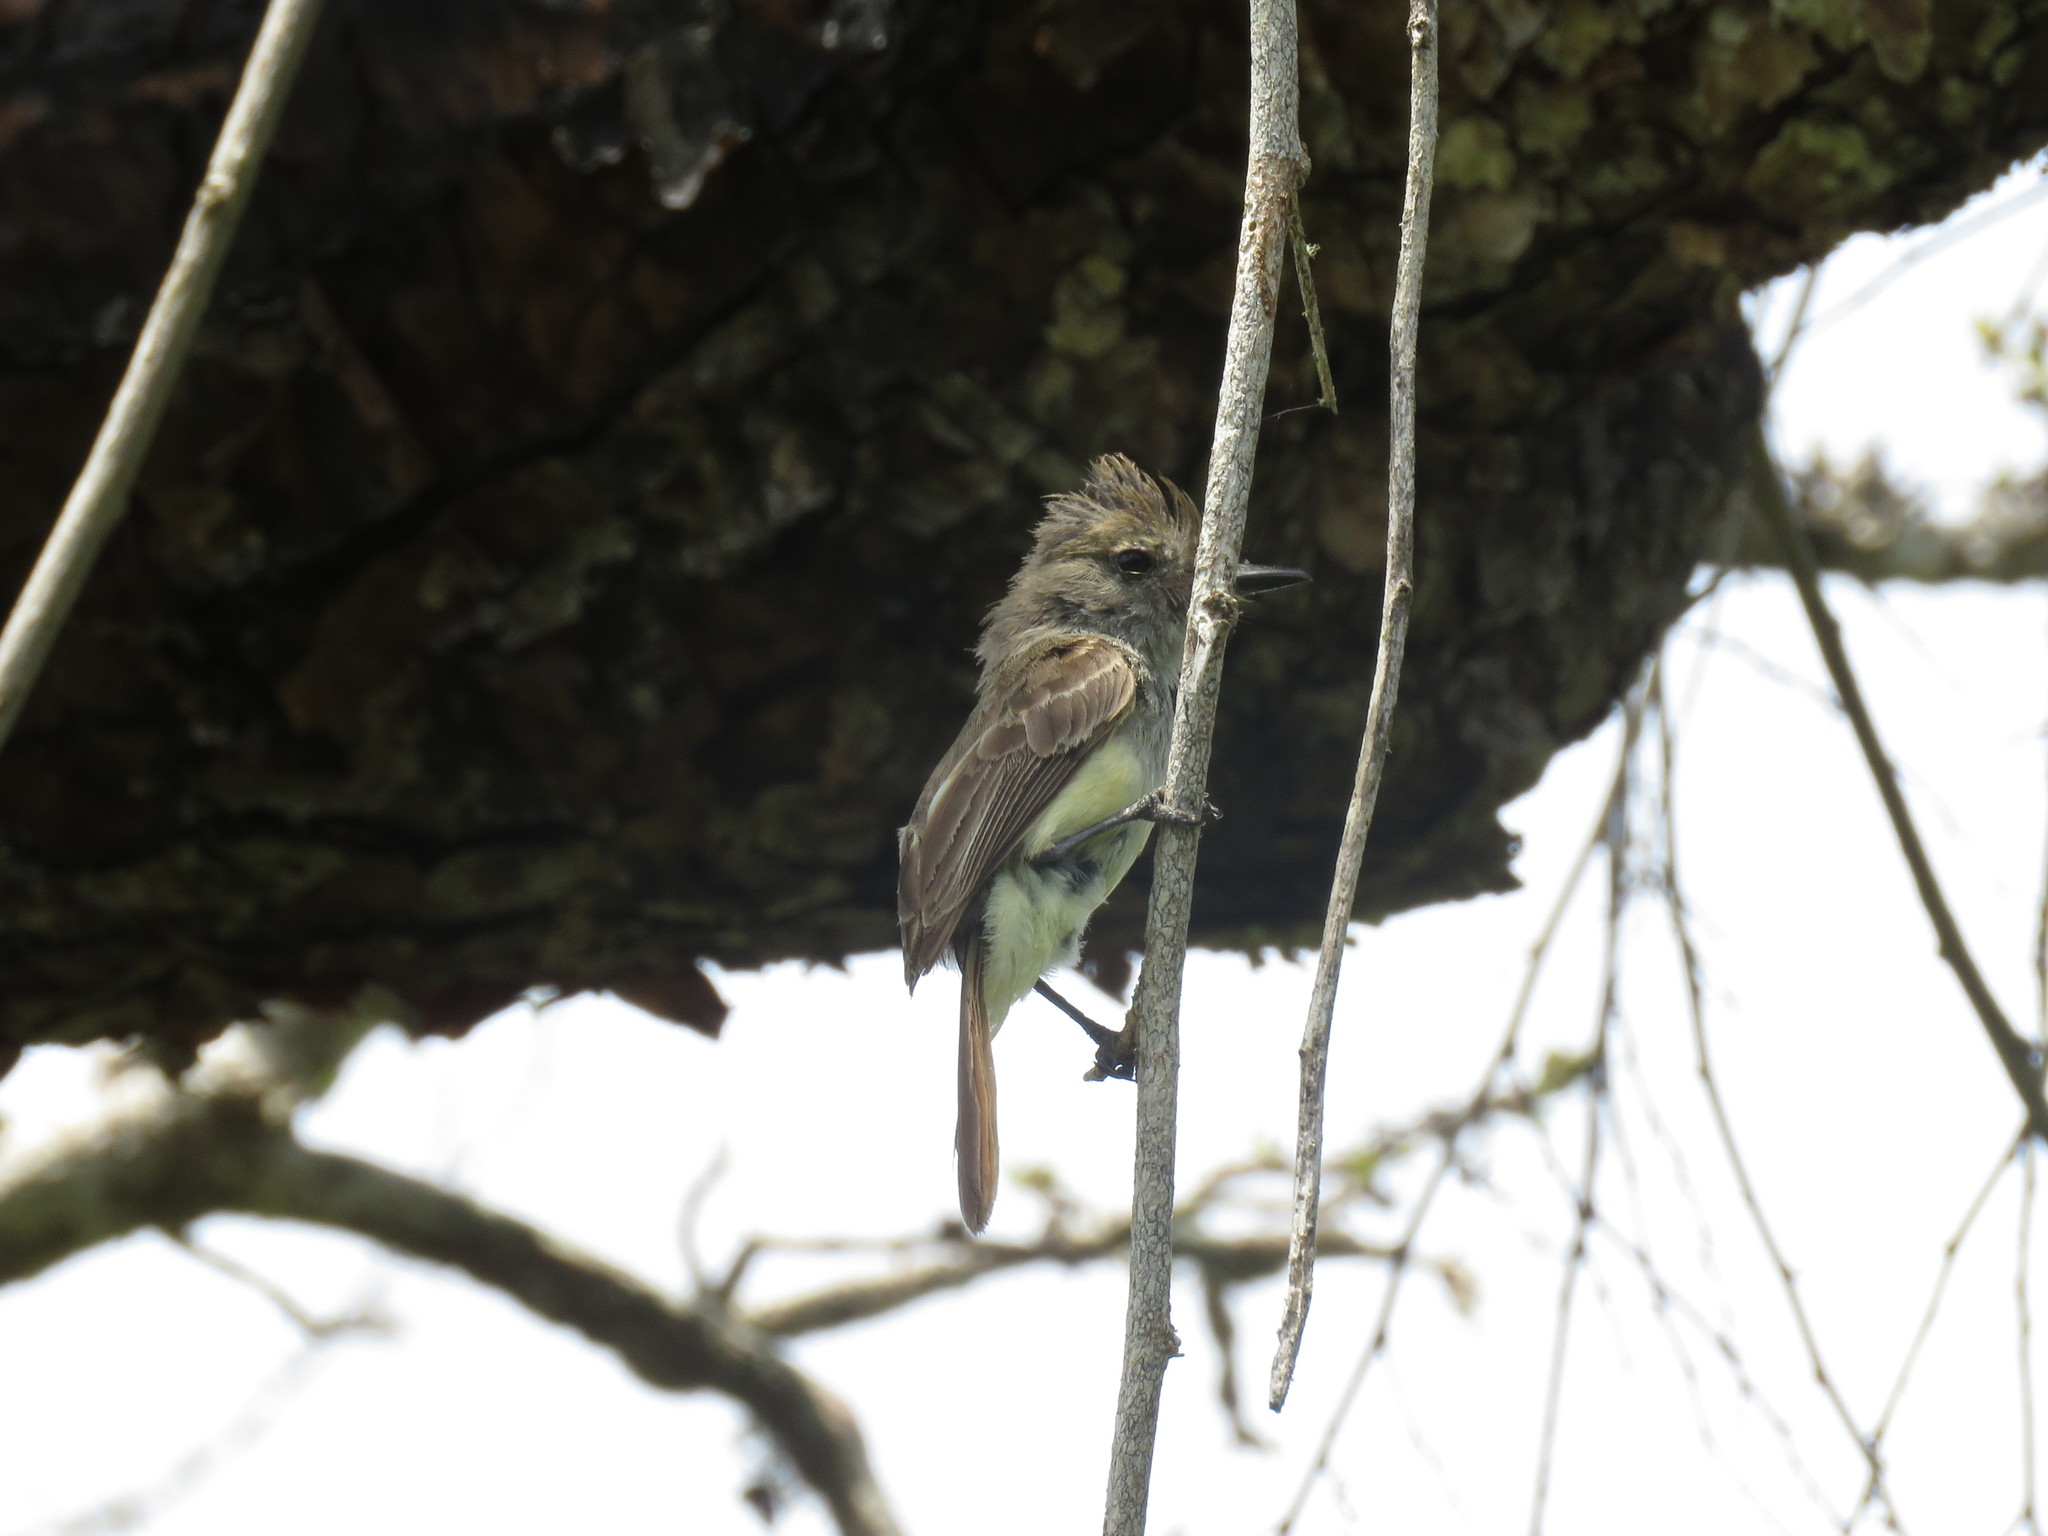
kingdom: Animalia
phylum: Chordata
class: Aves
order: Passeriformes
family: Tyrannidae
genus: Myiarchus
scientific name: Myiarchus magnirostris
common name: Galapagos flycatcher
